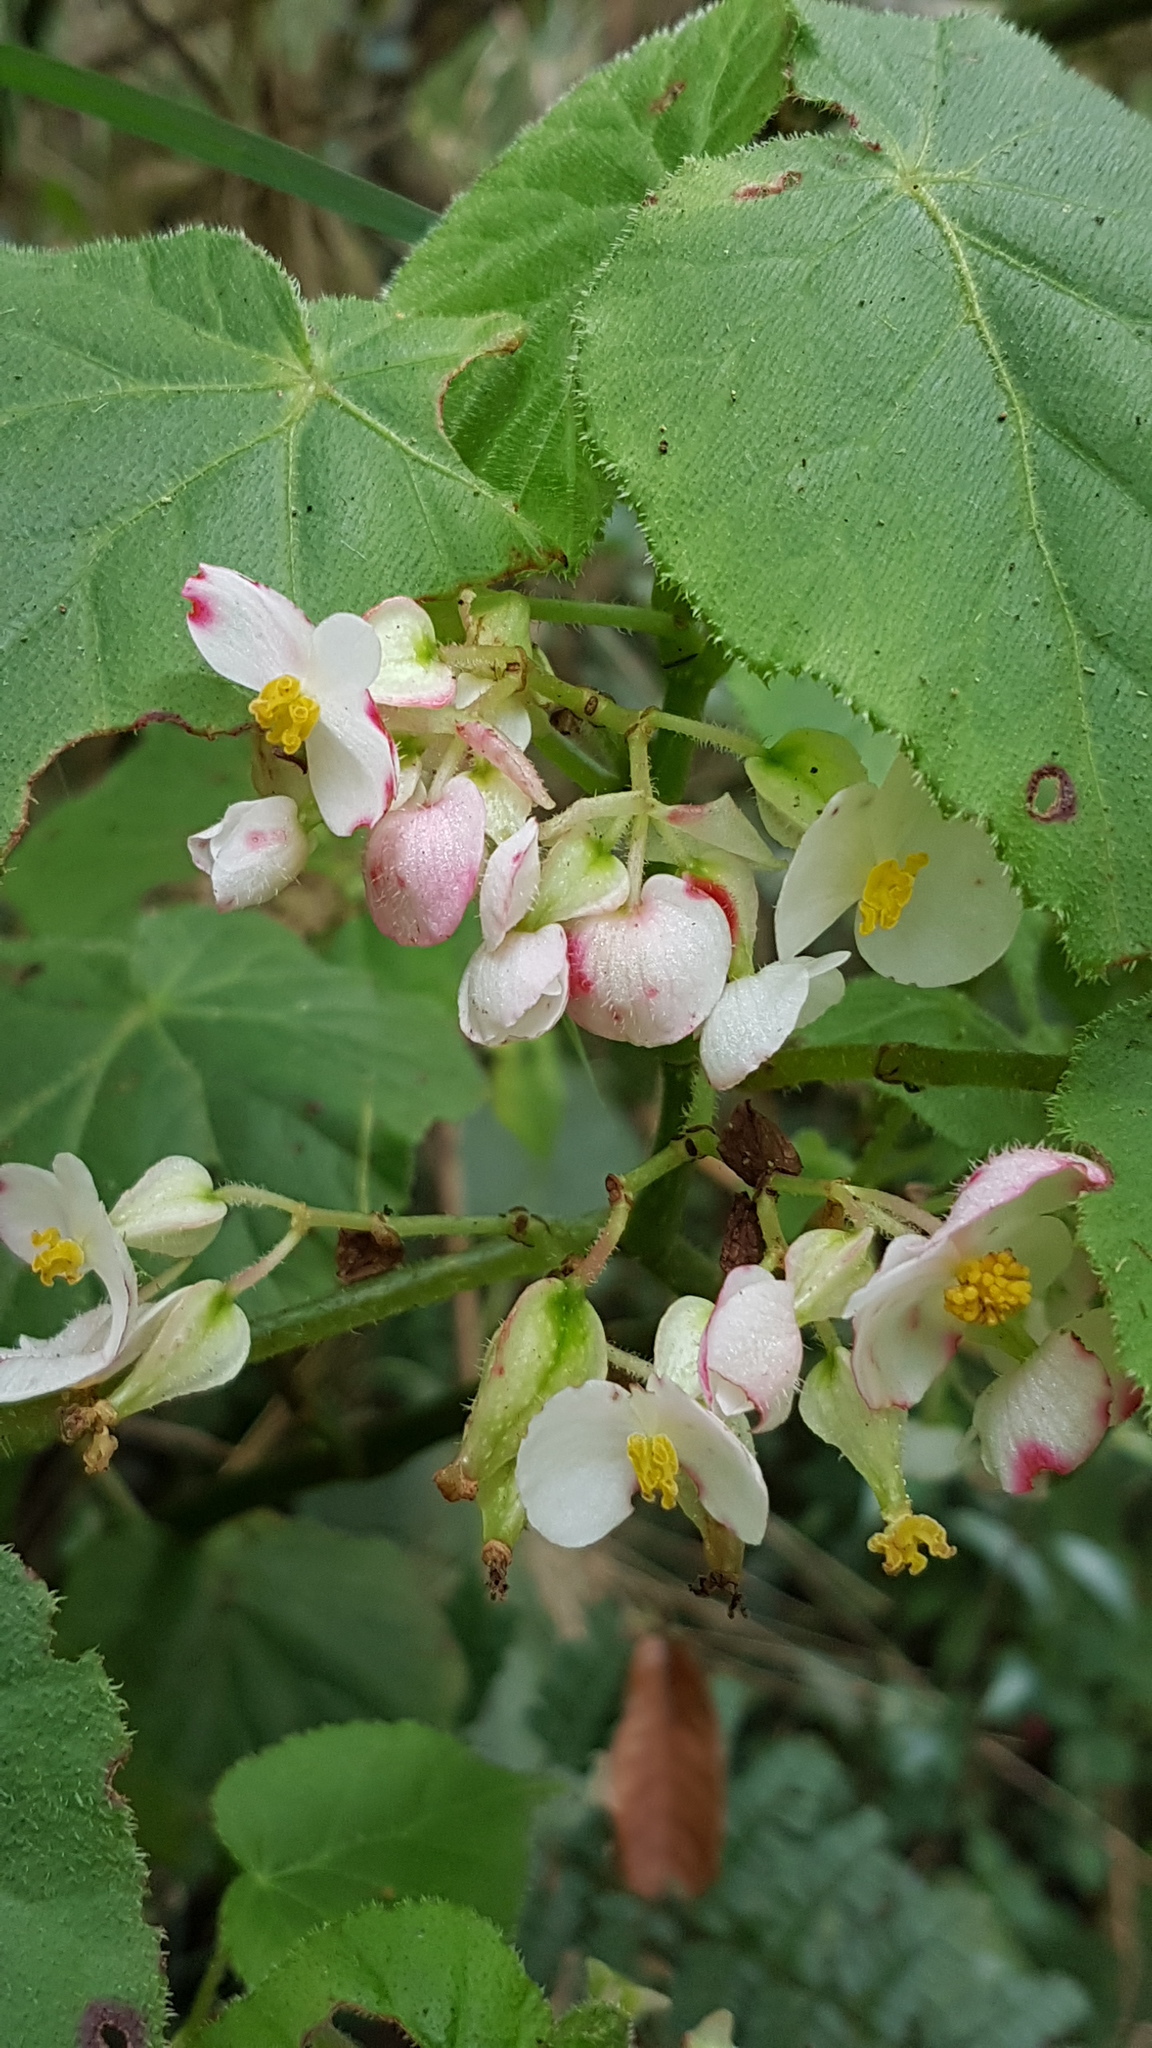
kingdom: Plantae
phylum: Tracheophyta
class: Magnoliopsida
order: Cucurbitales
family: Begoniaceae
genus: Begonia
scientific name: Begonia oaxacana
